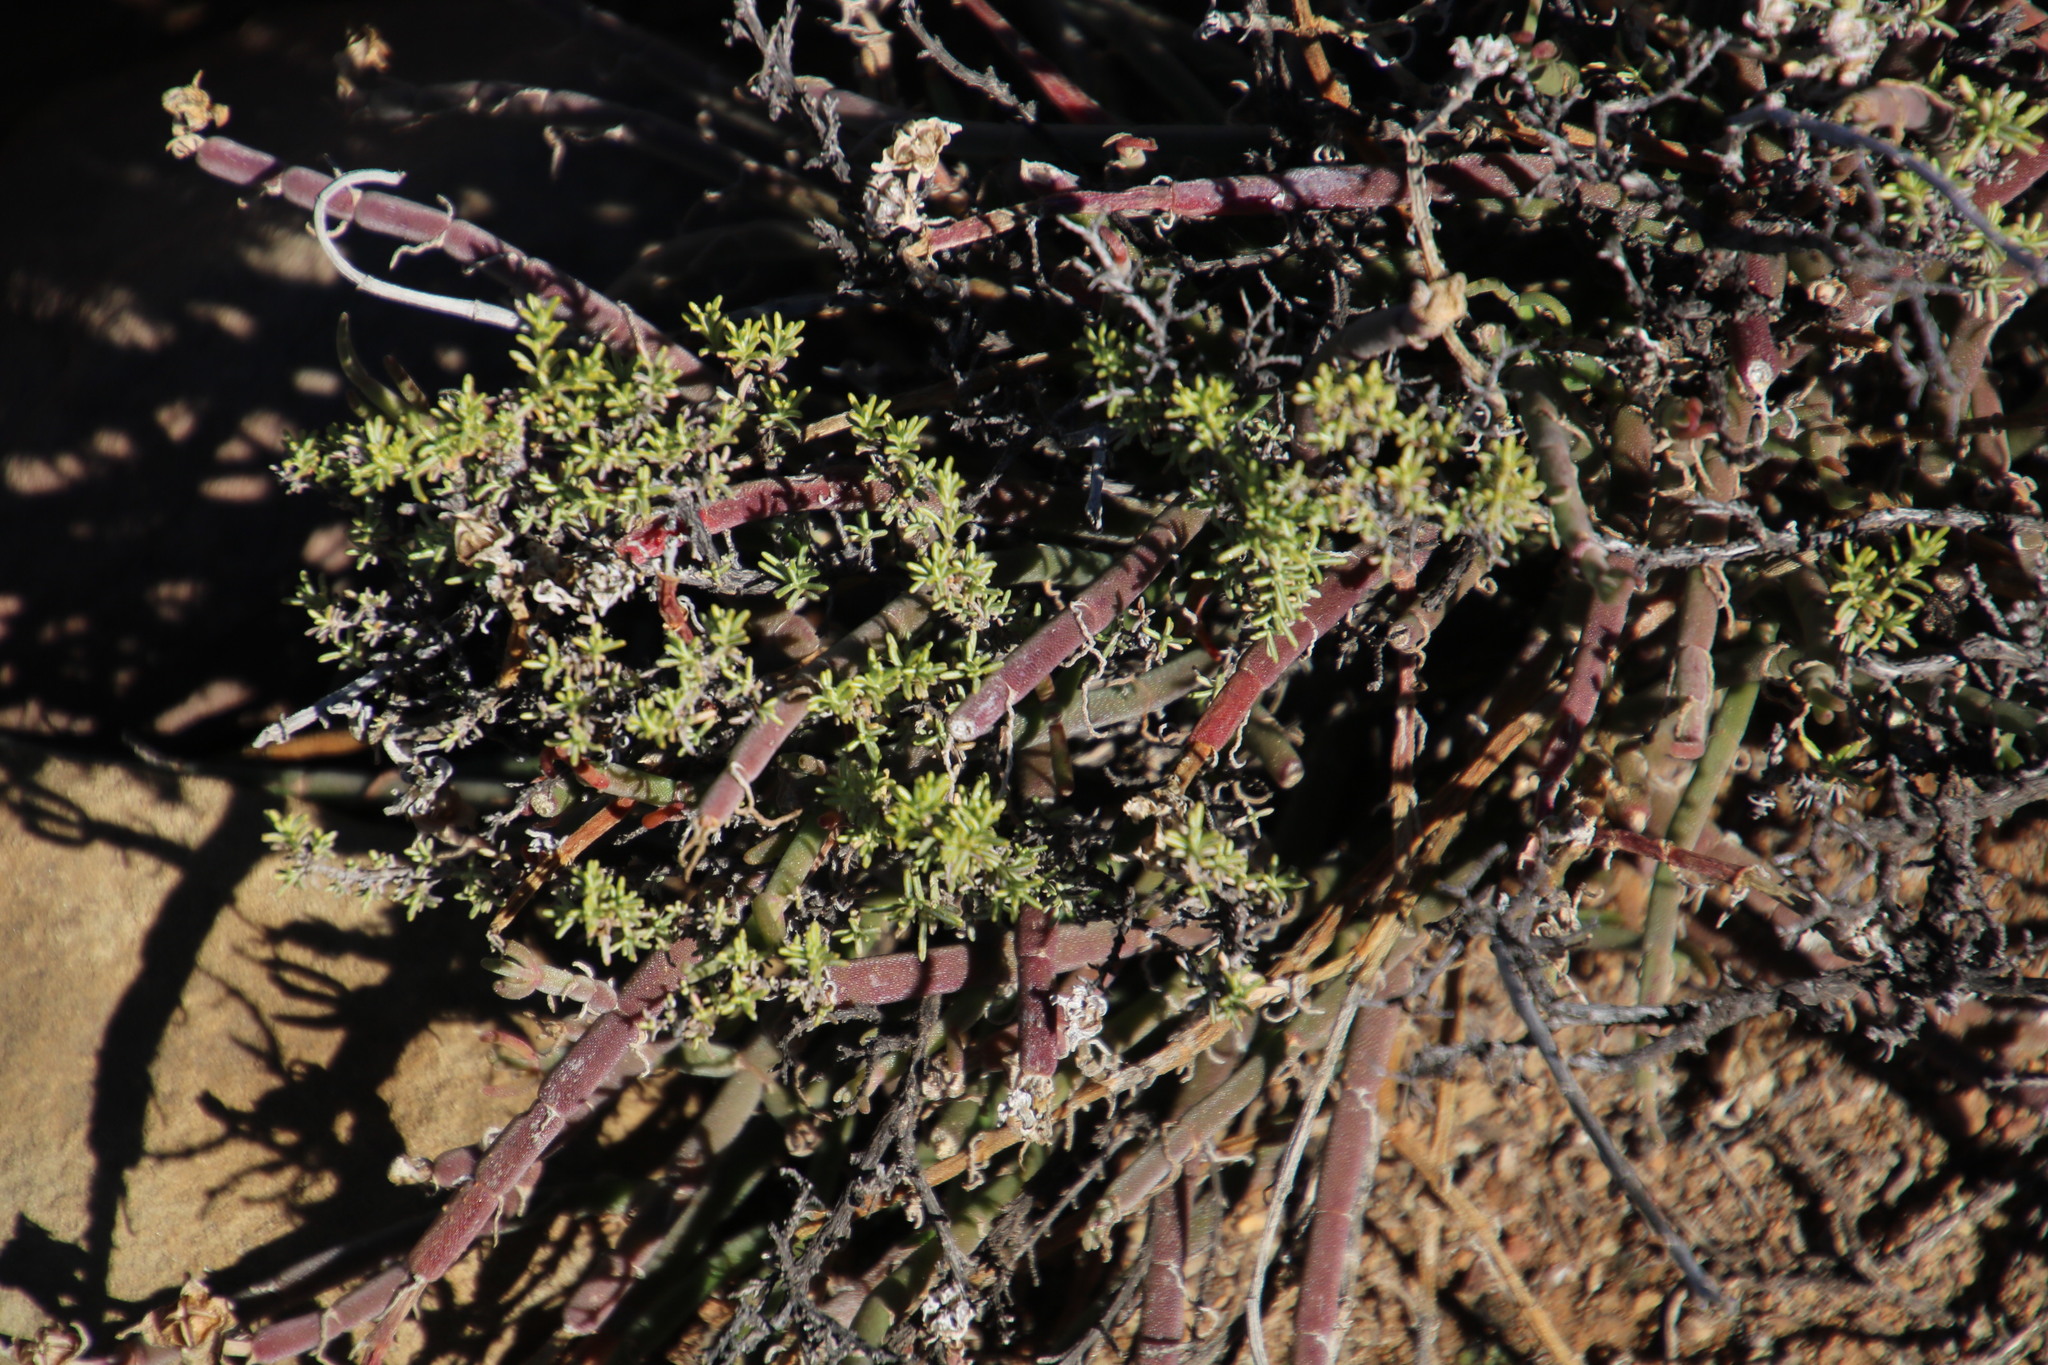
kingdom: Plantae
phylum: Tracheophyta
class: Magnoliopsida
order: Caryophyllales
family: Aizoaceae
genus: Mesembryanthemum
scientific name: Mesembryanthemum geniculiflorum
